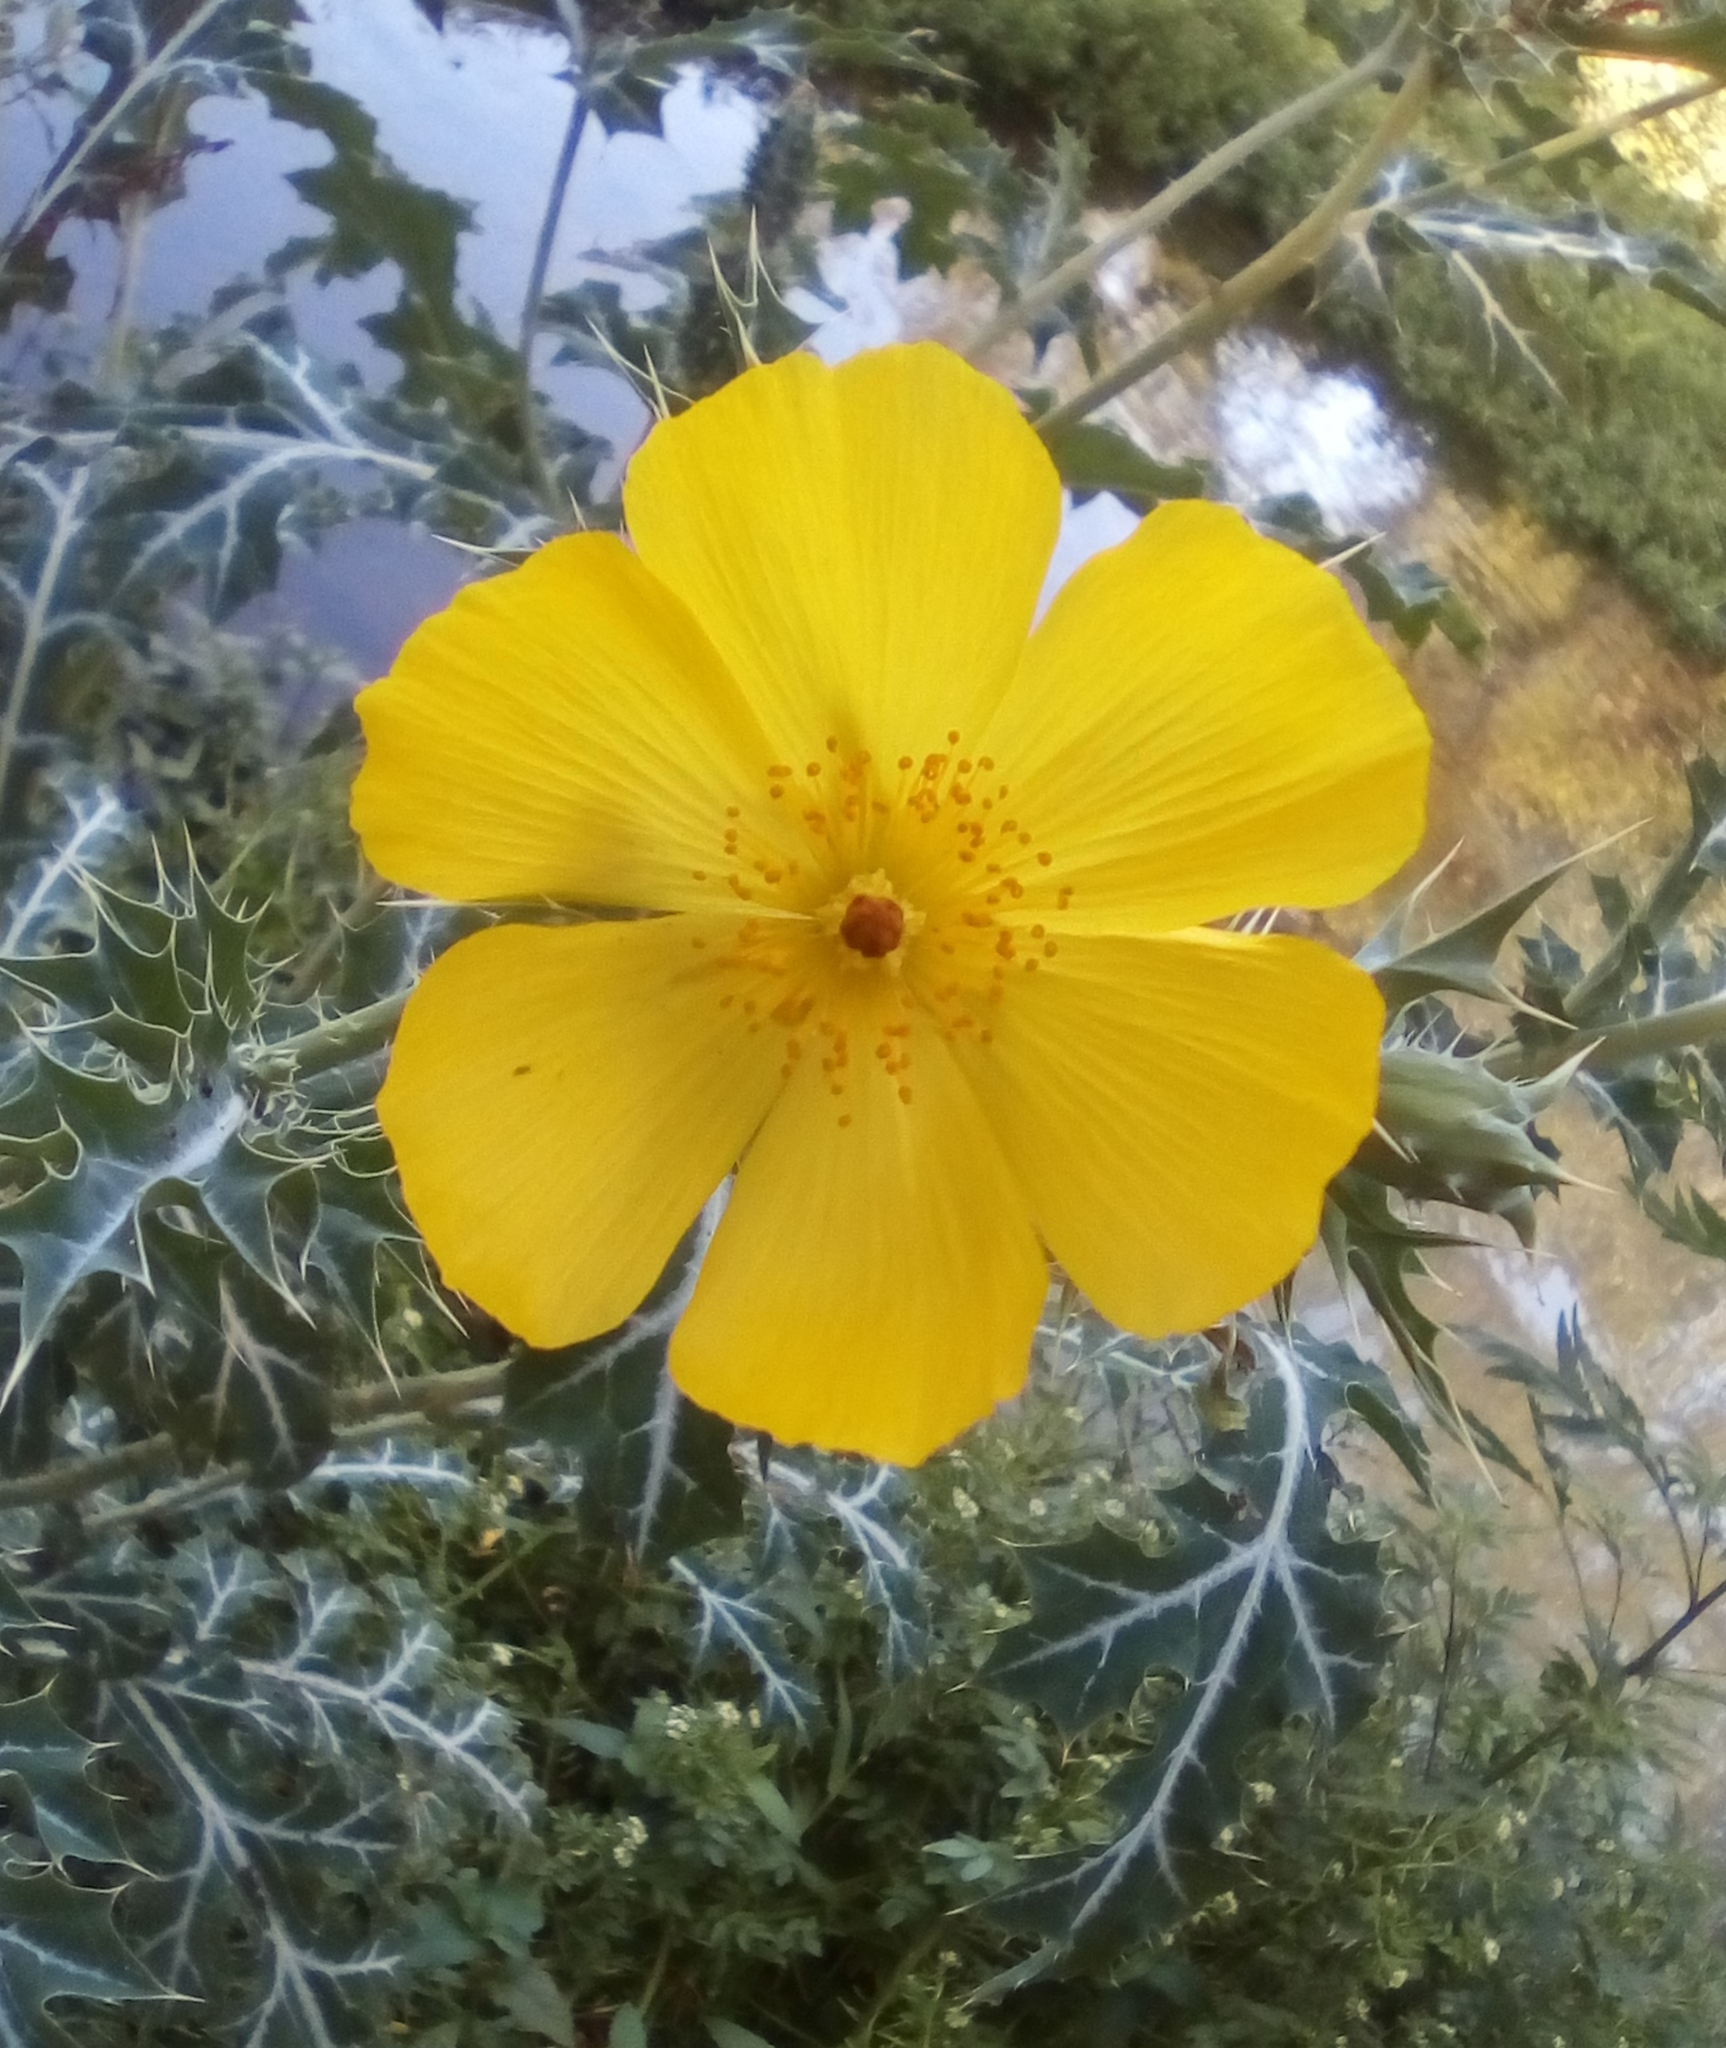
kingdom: Plantae
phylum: Tracheophyta
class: Magnoliopsida
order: Ranunculales
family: Papaveraceae
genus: Argemone
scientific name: Argemone mexicana
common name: Mexican poppy
